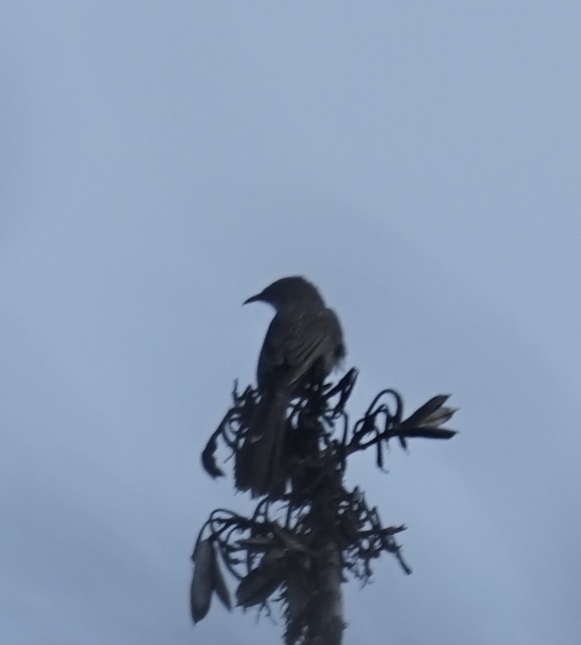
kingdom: Animalia
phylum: Chordata
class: Aves
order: Passeriformes
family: Meliphagidae
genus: Anthochaera
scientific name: Anthochaera chrysoptera
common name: Little wattlebird
